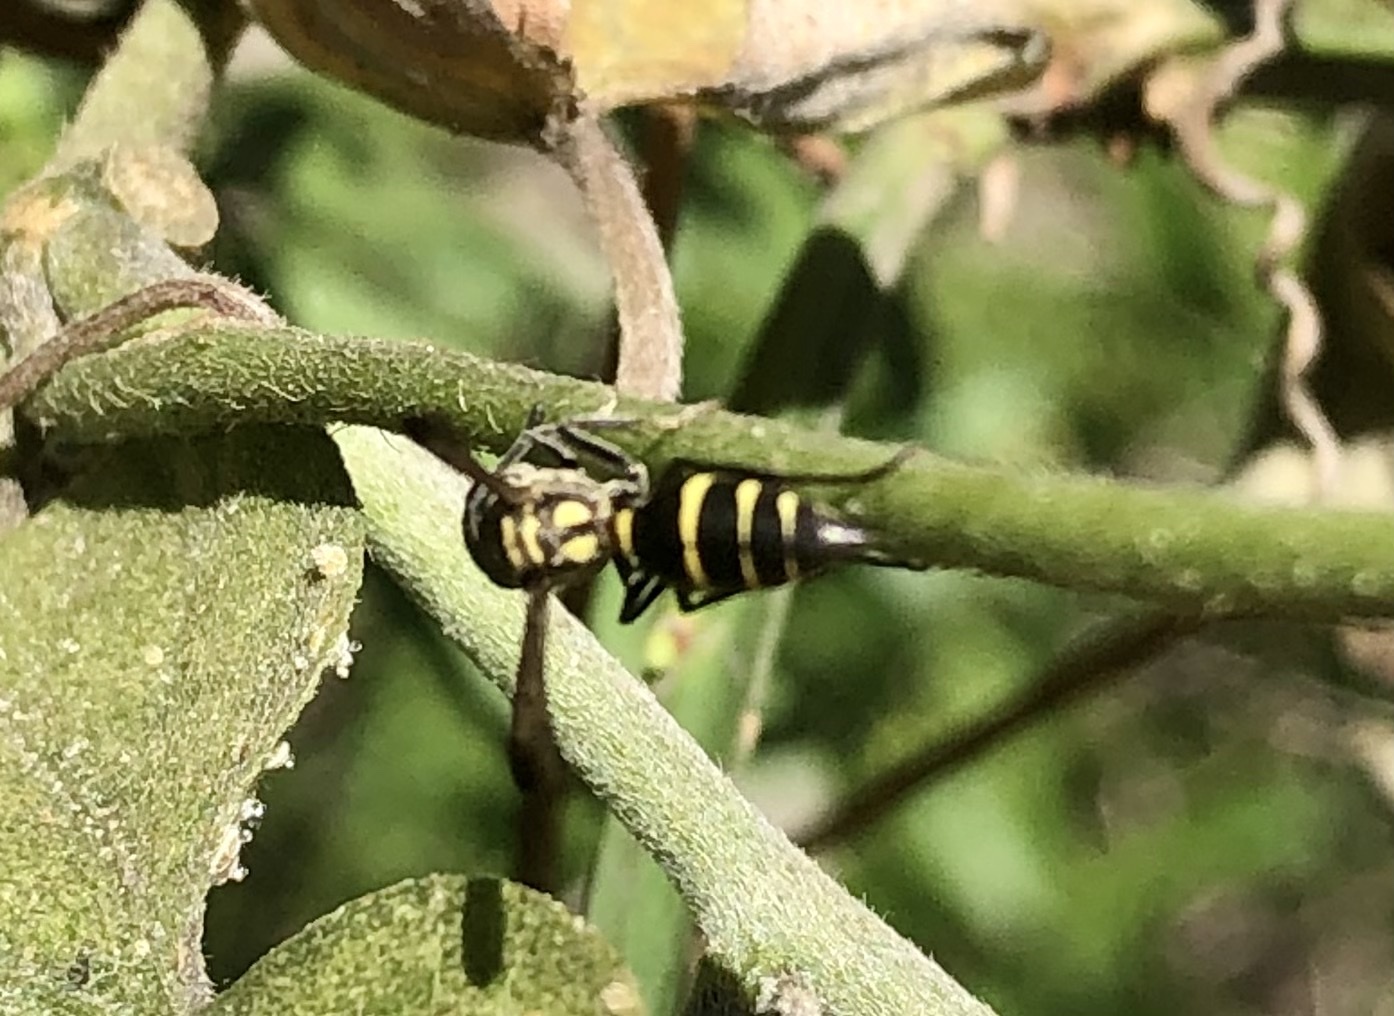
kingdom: Animalia
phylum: Arthropoda
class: Insecta
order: Hymenoptera
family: Eumenidae
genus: Polybia
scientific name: Polybia occidentalis
